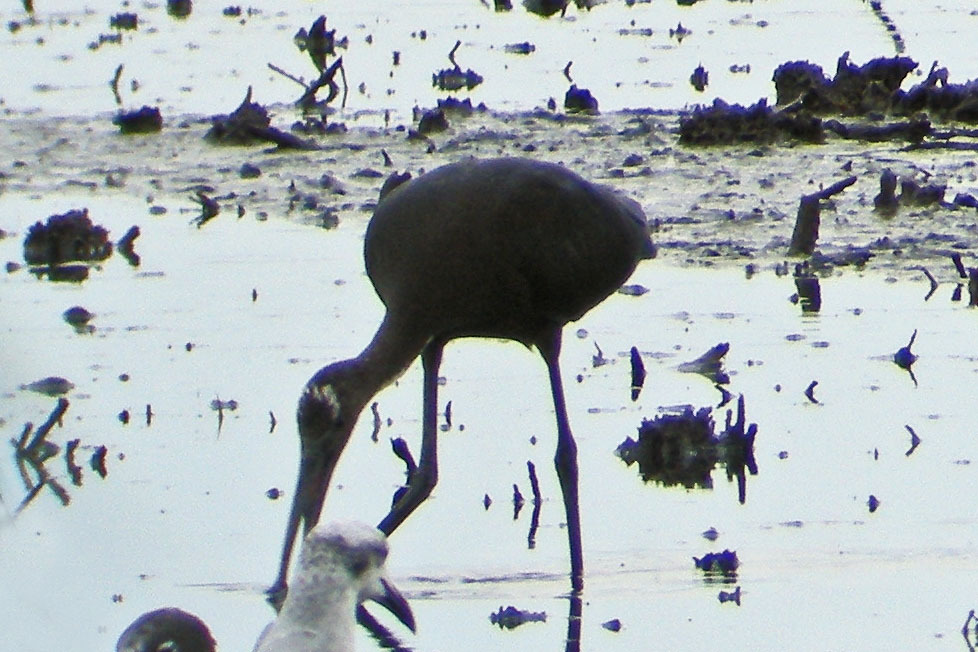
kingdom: Animalia
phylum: Chordata
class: Aves
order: Pelecaniformes
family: Threskiornithidae
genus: Plegadis
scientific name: Plegadis falcinellus
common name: Glossy ibis
